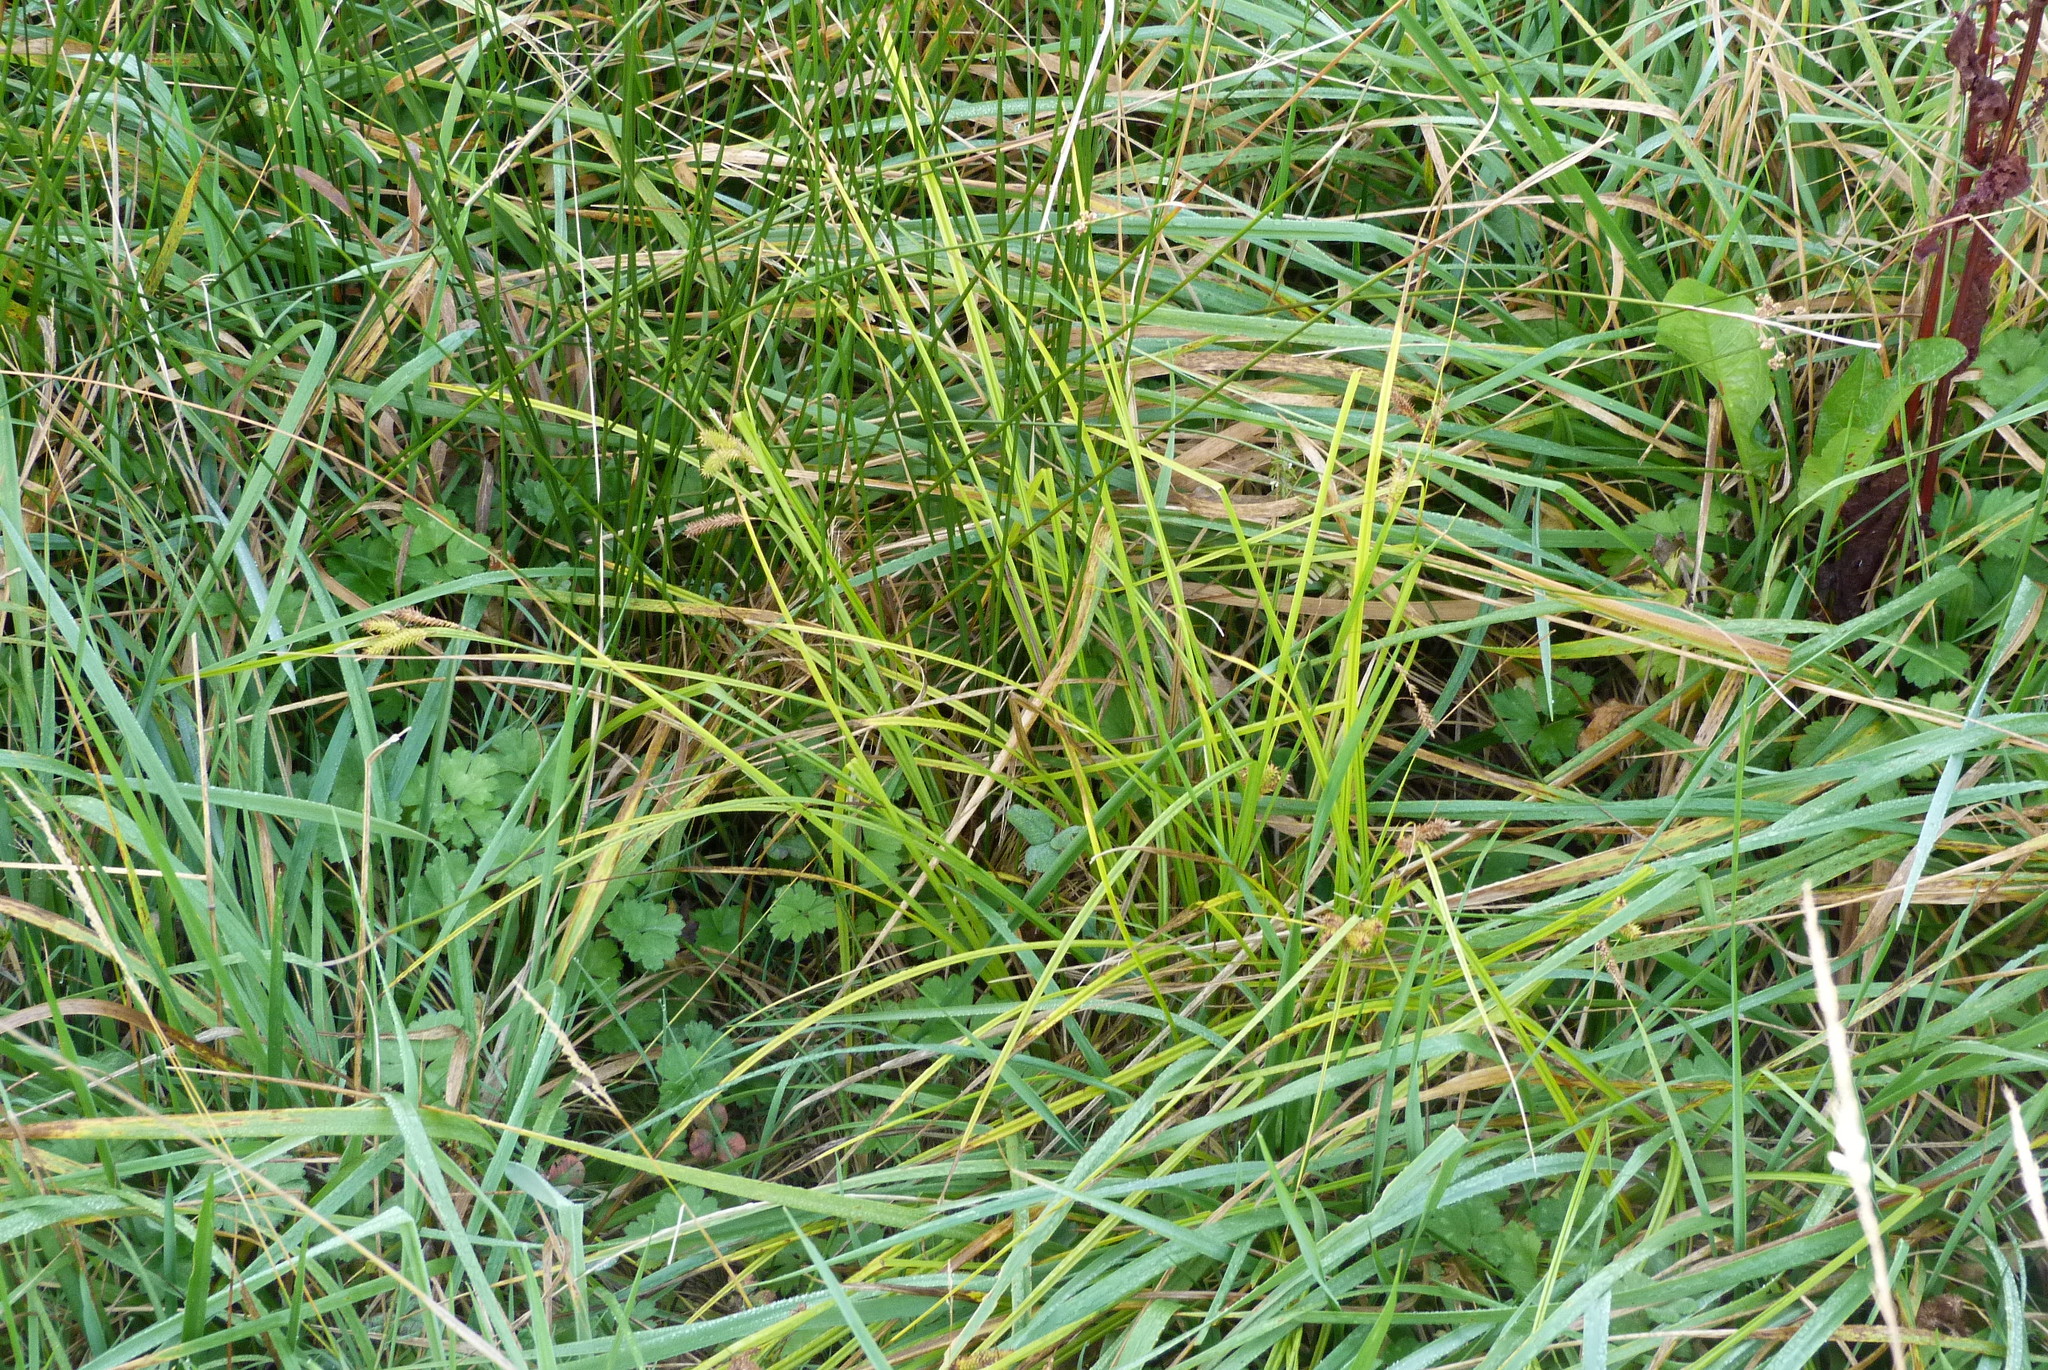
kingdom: Plantae
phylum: Tracheophyta
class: Liliopsida
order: Poales
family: Cyperaceae
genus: Carex
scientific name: Carex maorica
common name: Maori sedge
